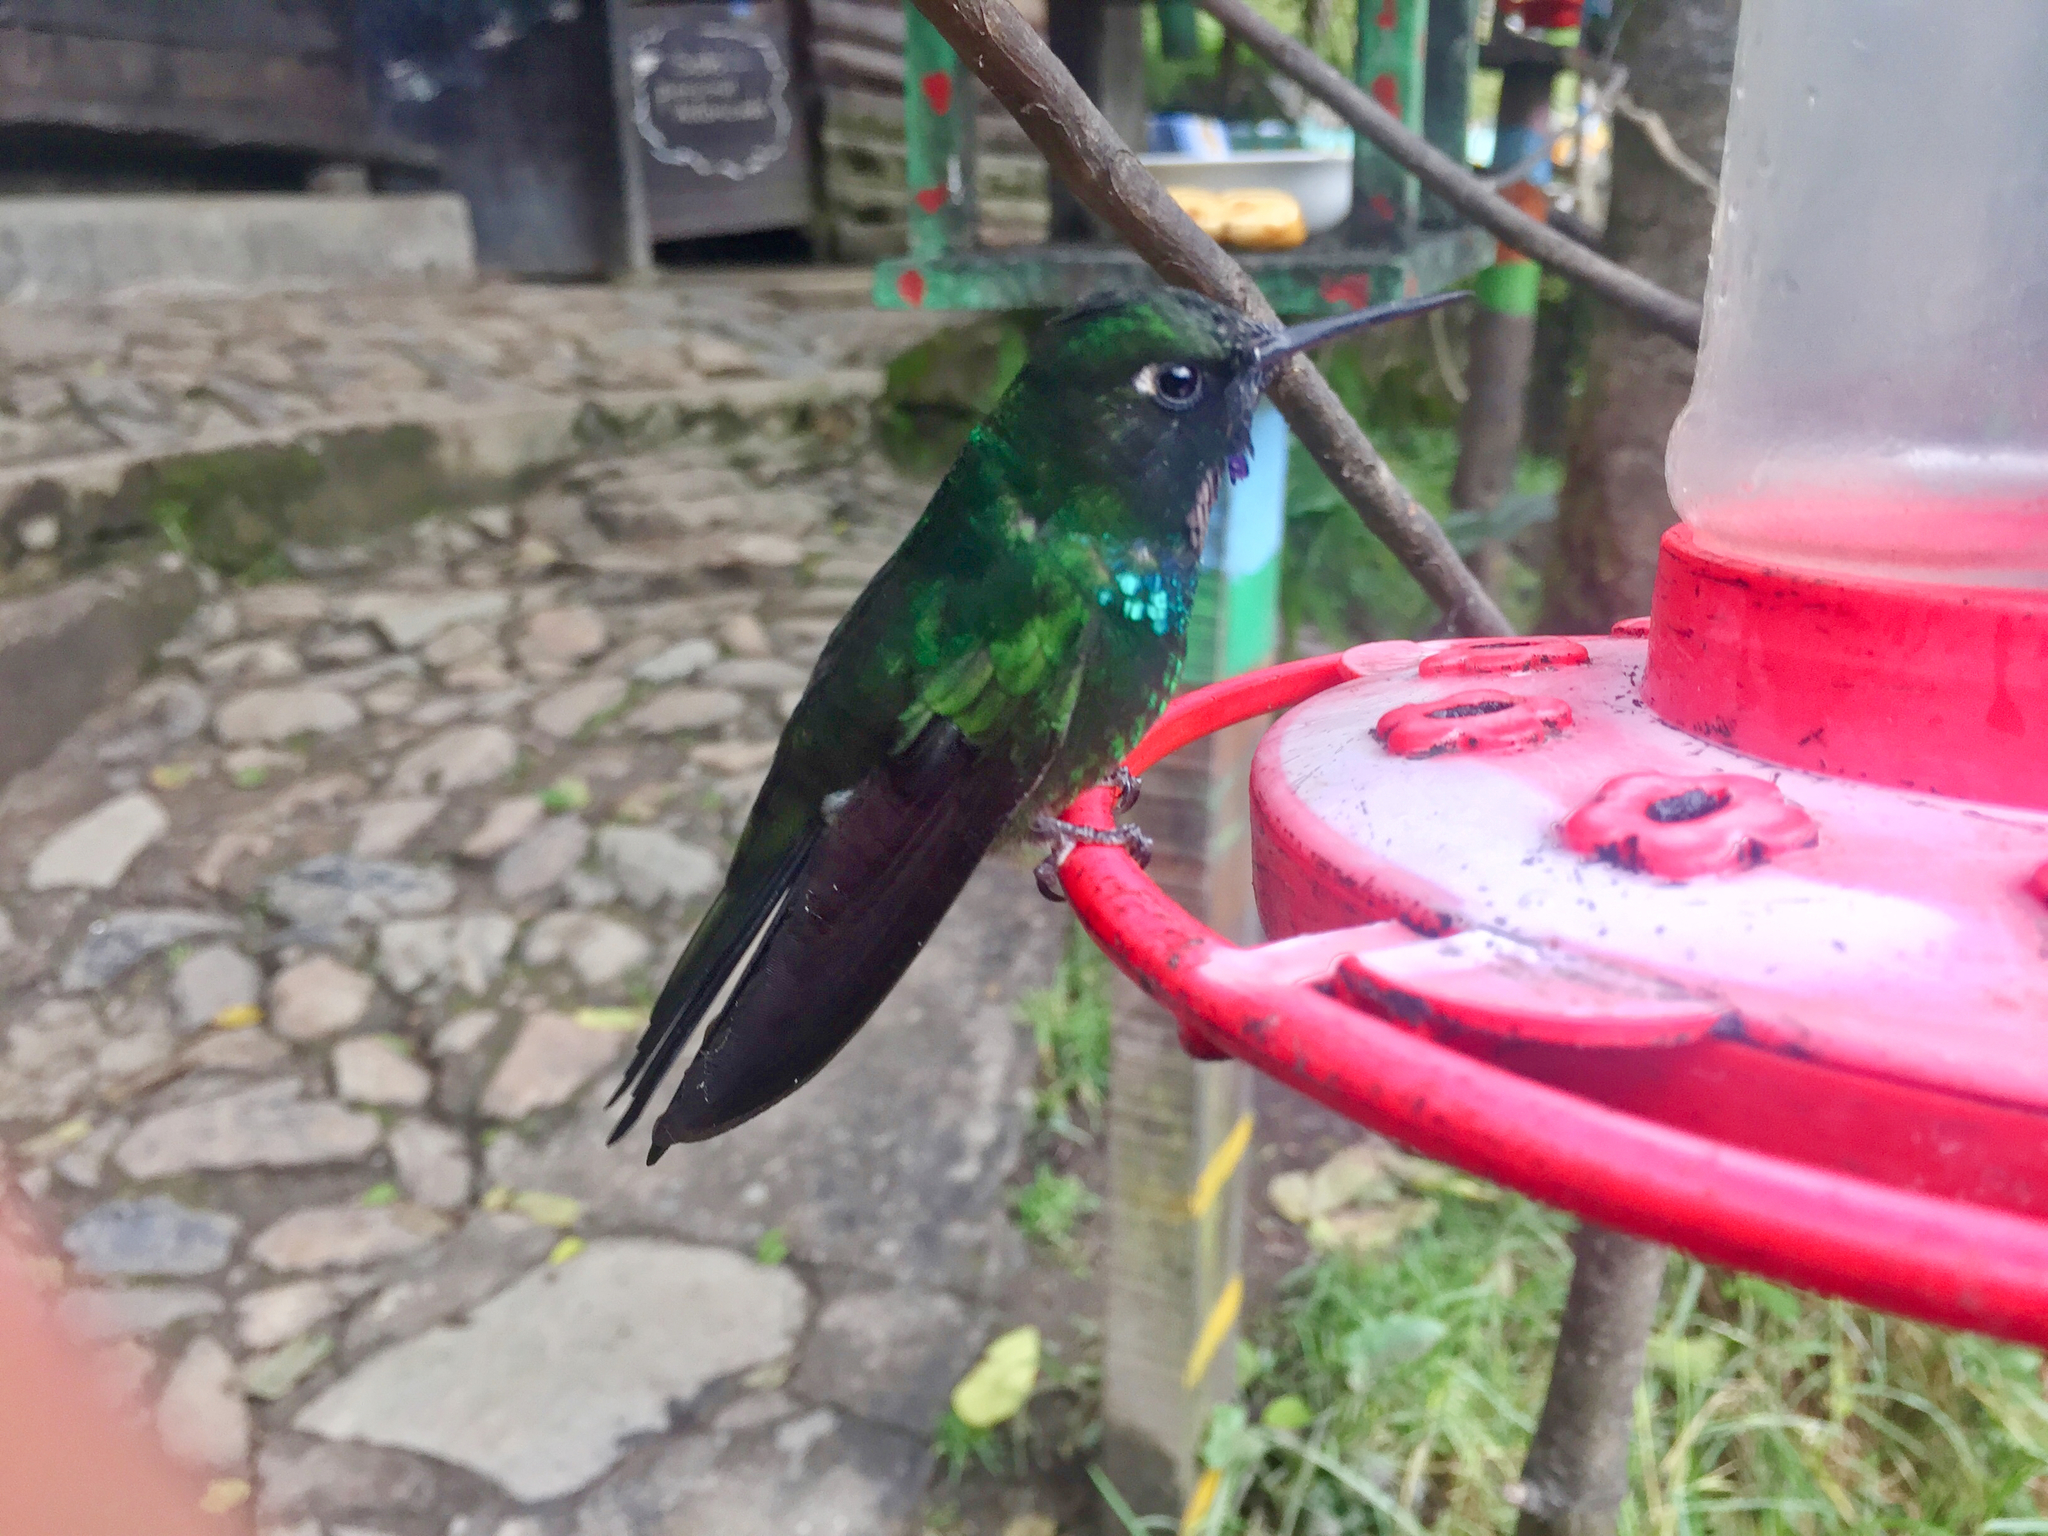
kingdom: Animalia
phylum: Chordata
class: Aves
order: Apodiformes
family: Trochilidae
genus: Heliangelus
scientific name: Heliangelus exortis
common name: Tourmaline sunangel
